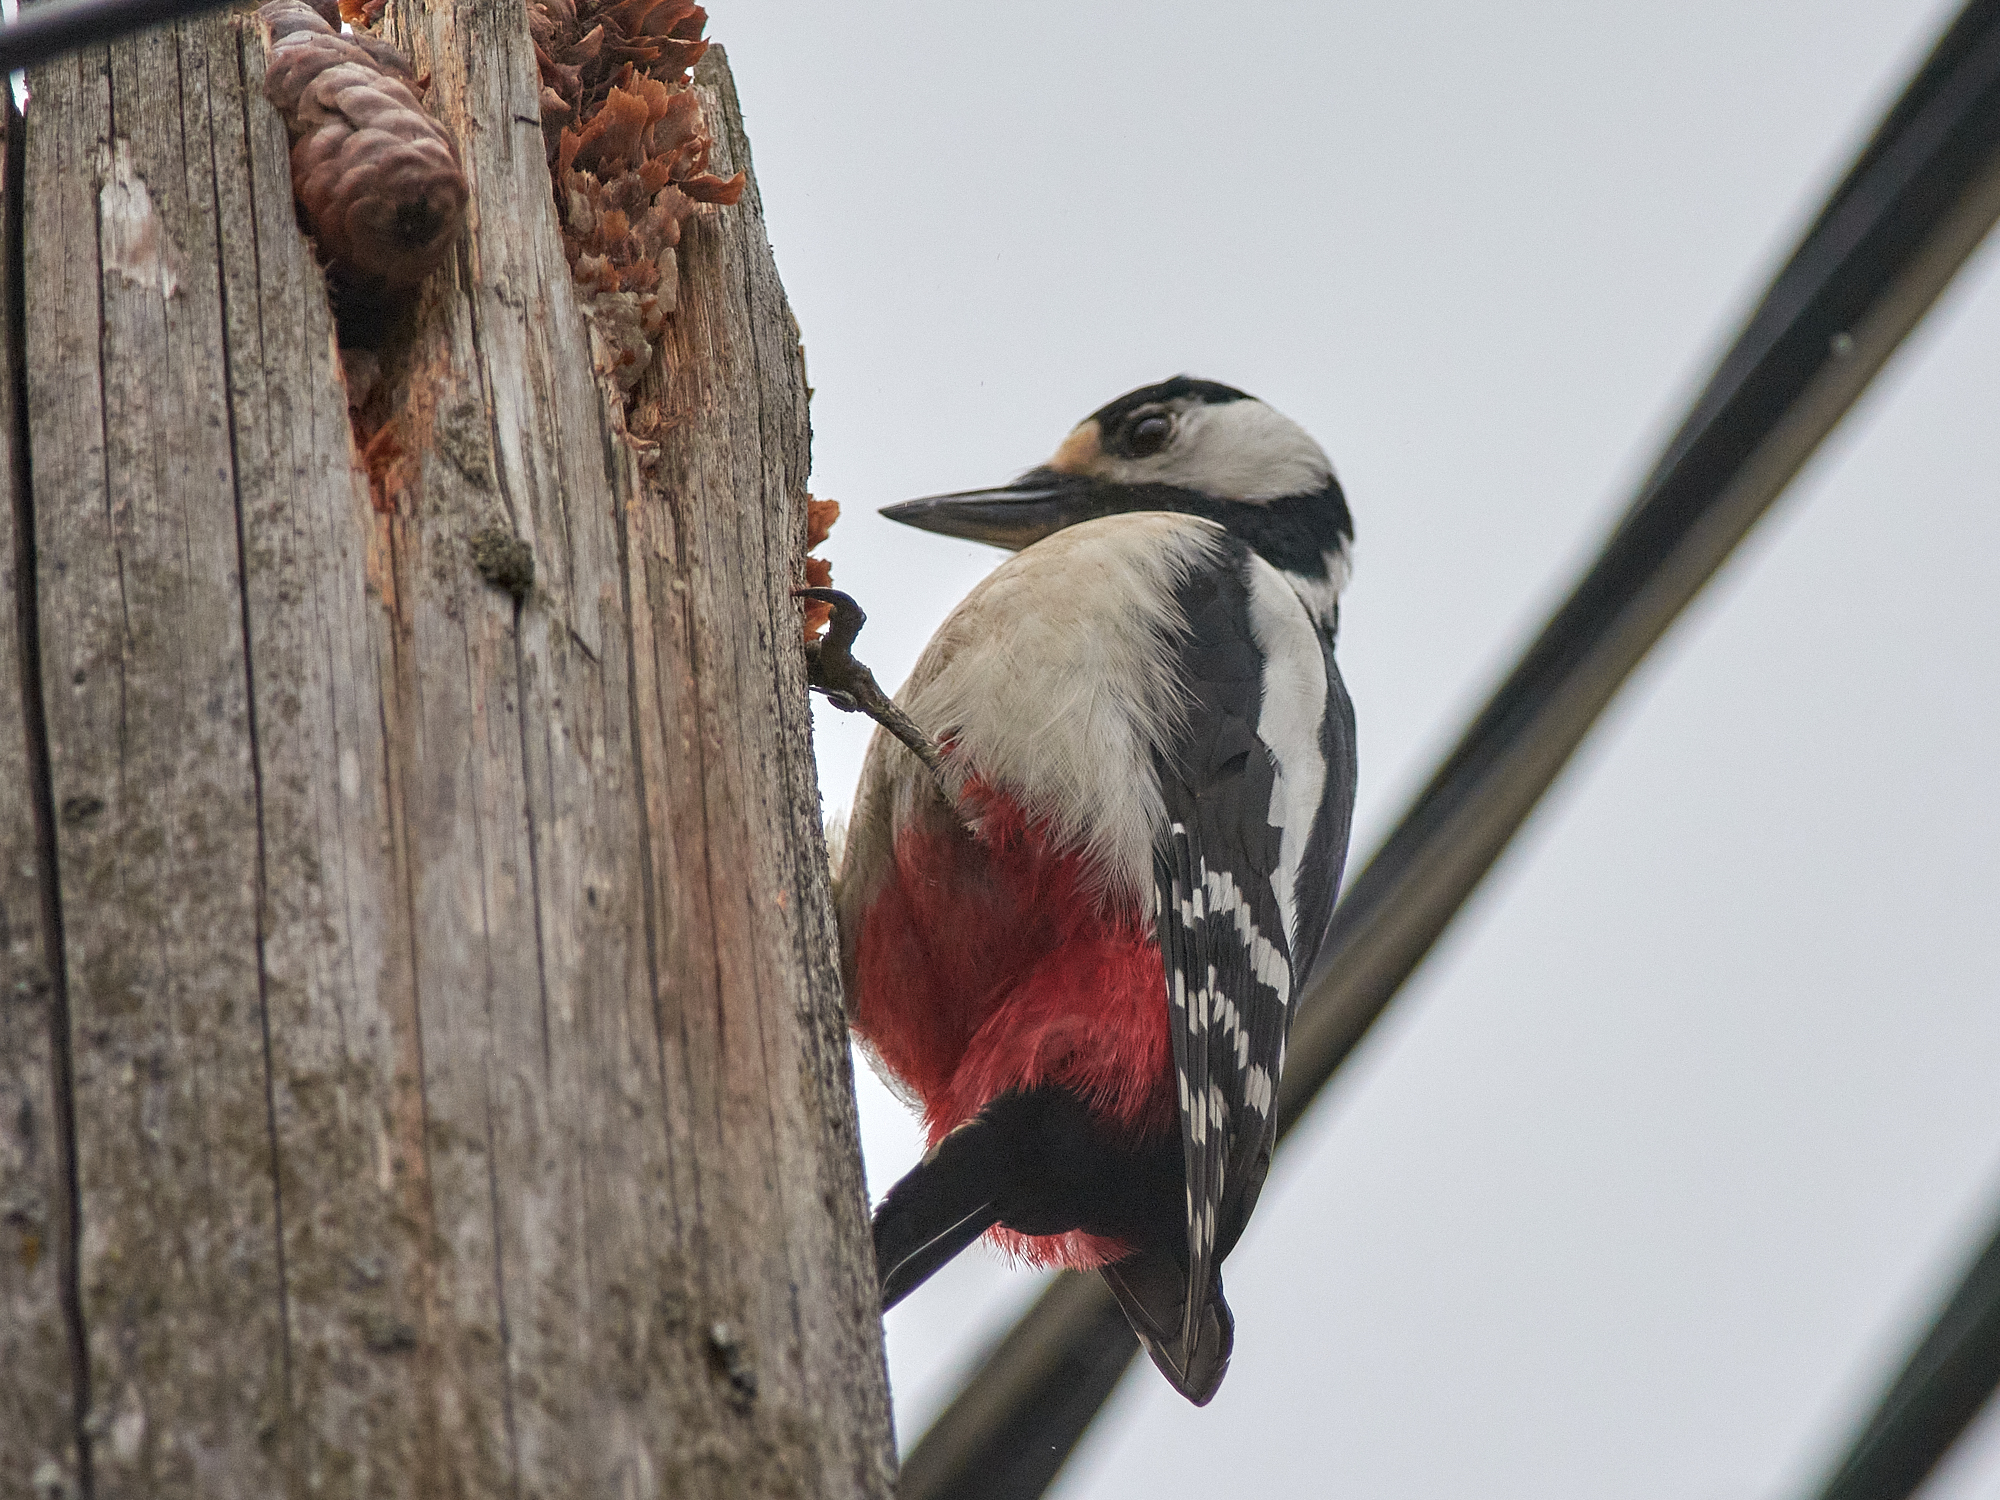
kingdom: Animalia
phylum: Chordata
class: Aves
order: Piciformes
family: Picidae
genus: Dendrocopos
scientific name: Dendrocopos major
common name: Great spotted woodpecker
